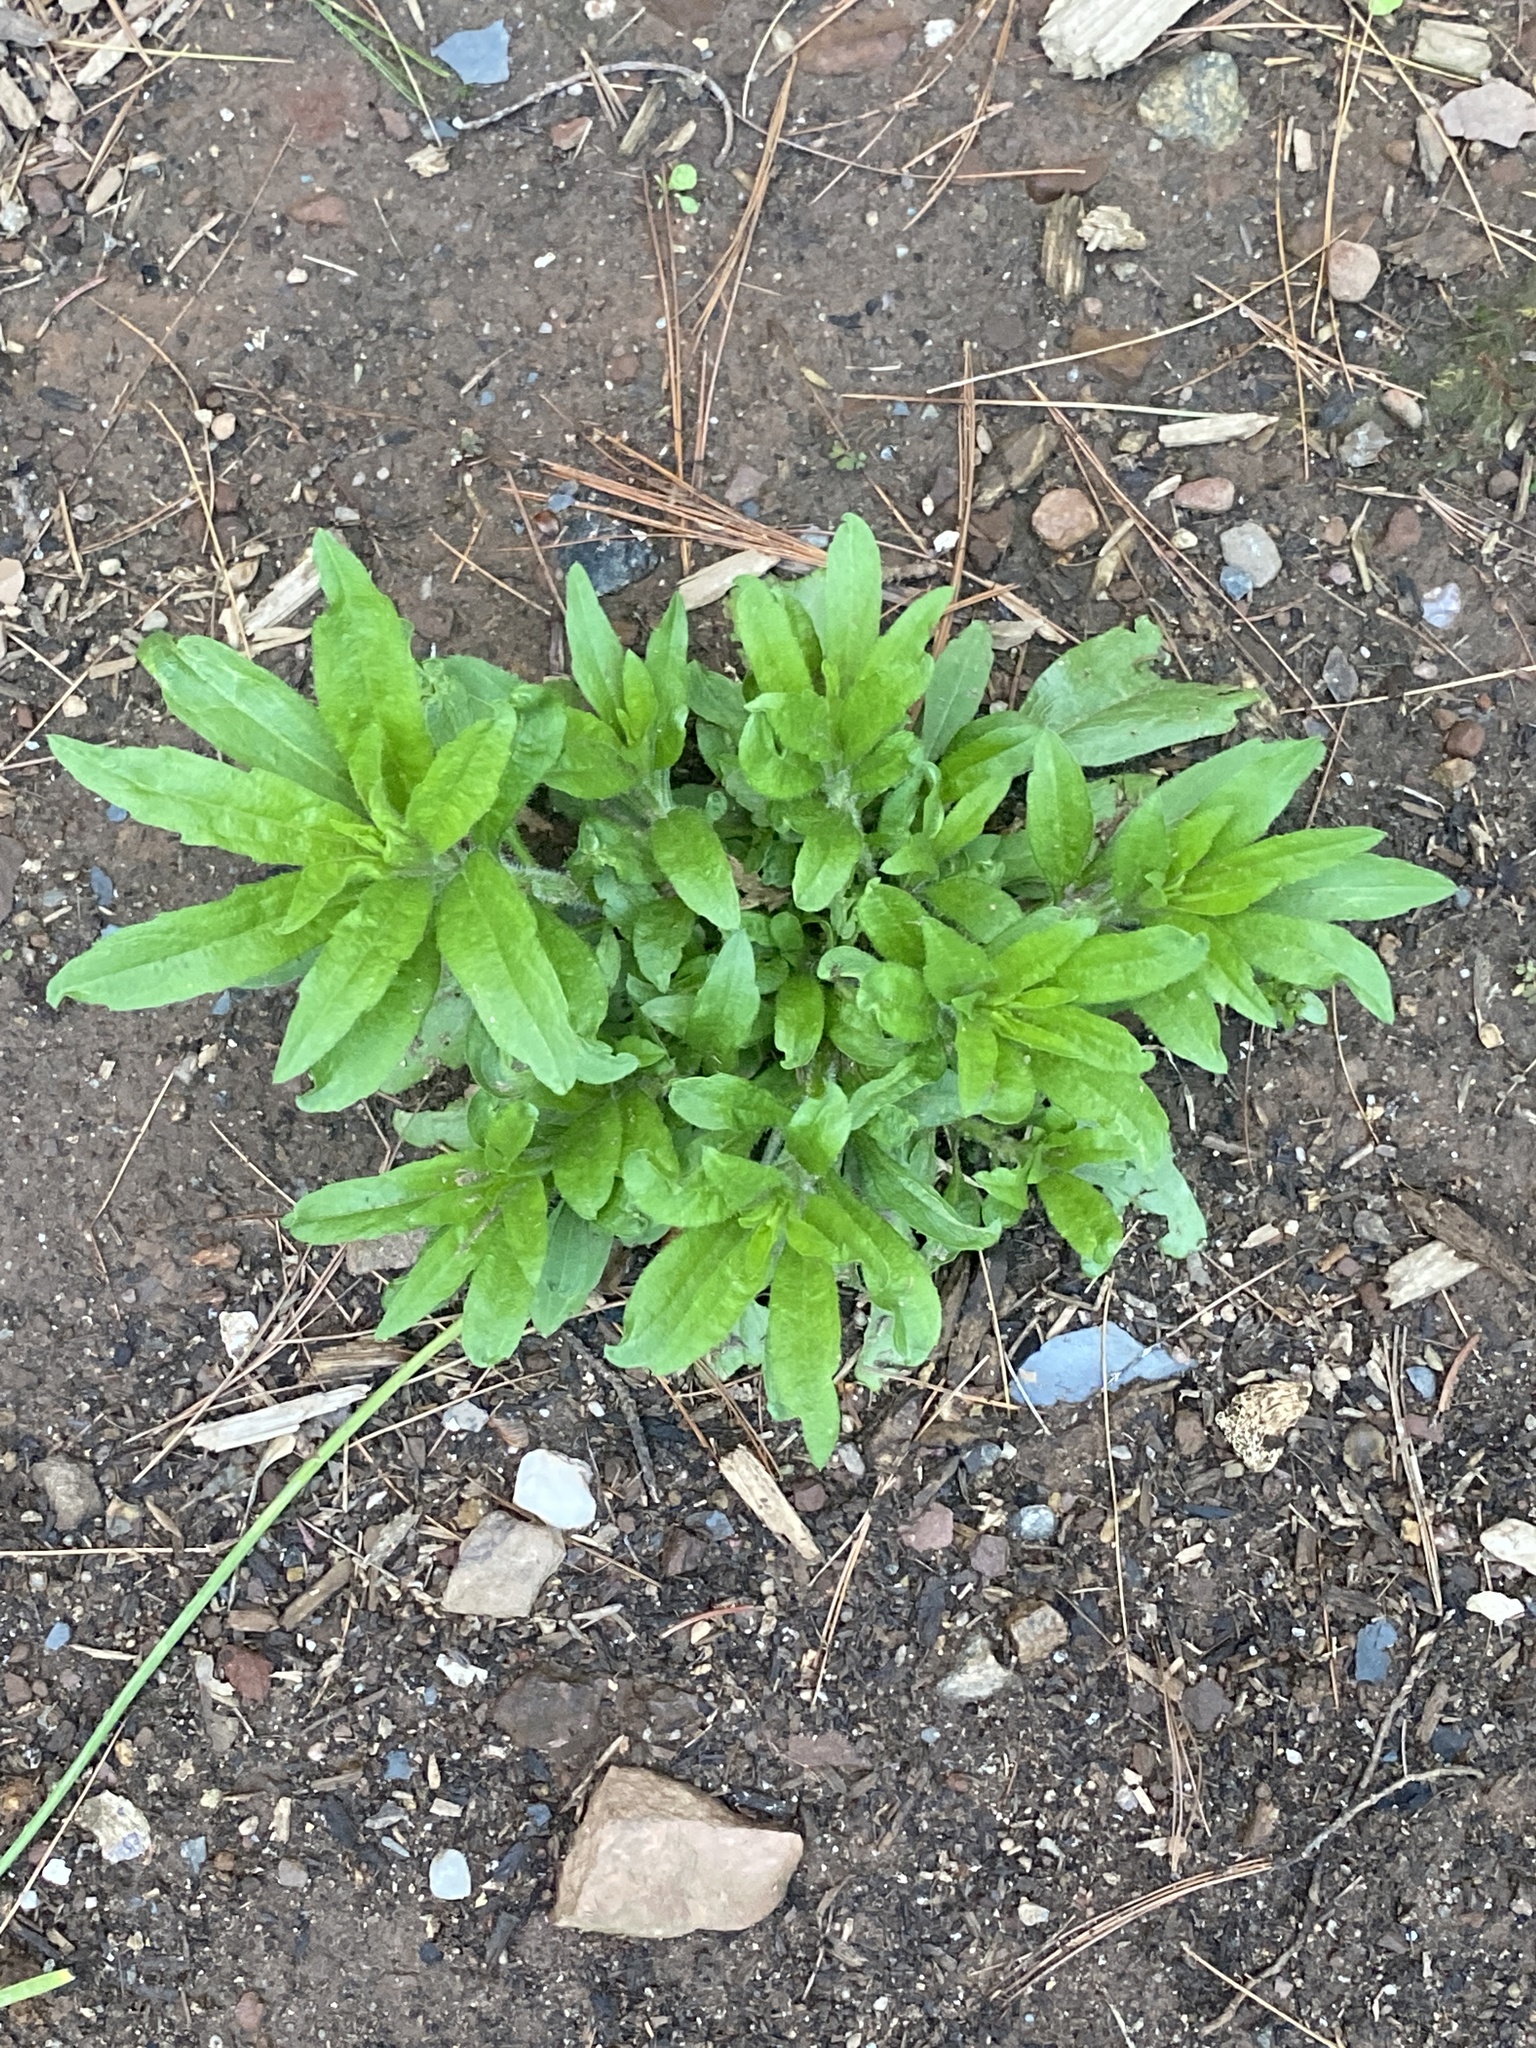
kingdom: Plantae
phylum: Tracheophyta
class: Magnoliopsida
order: Asterales
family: Asteraceae
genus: Erigeron
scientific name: Erigeron canadensis
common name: Canadian fleabane
